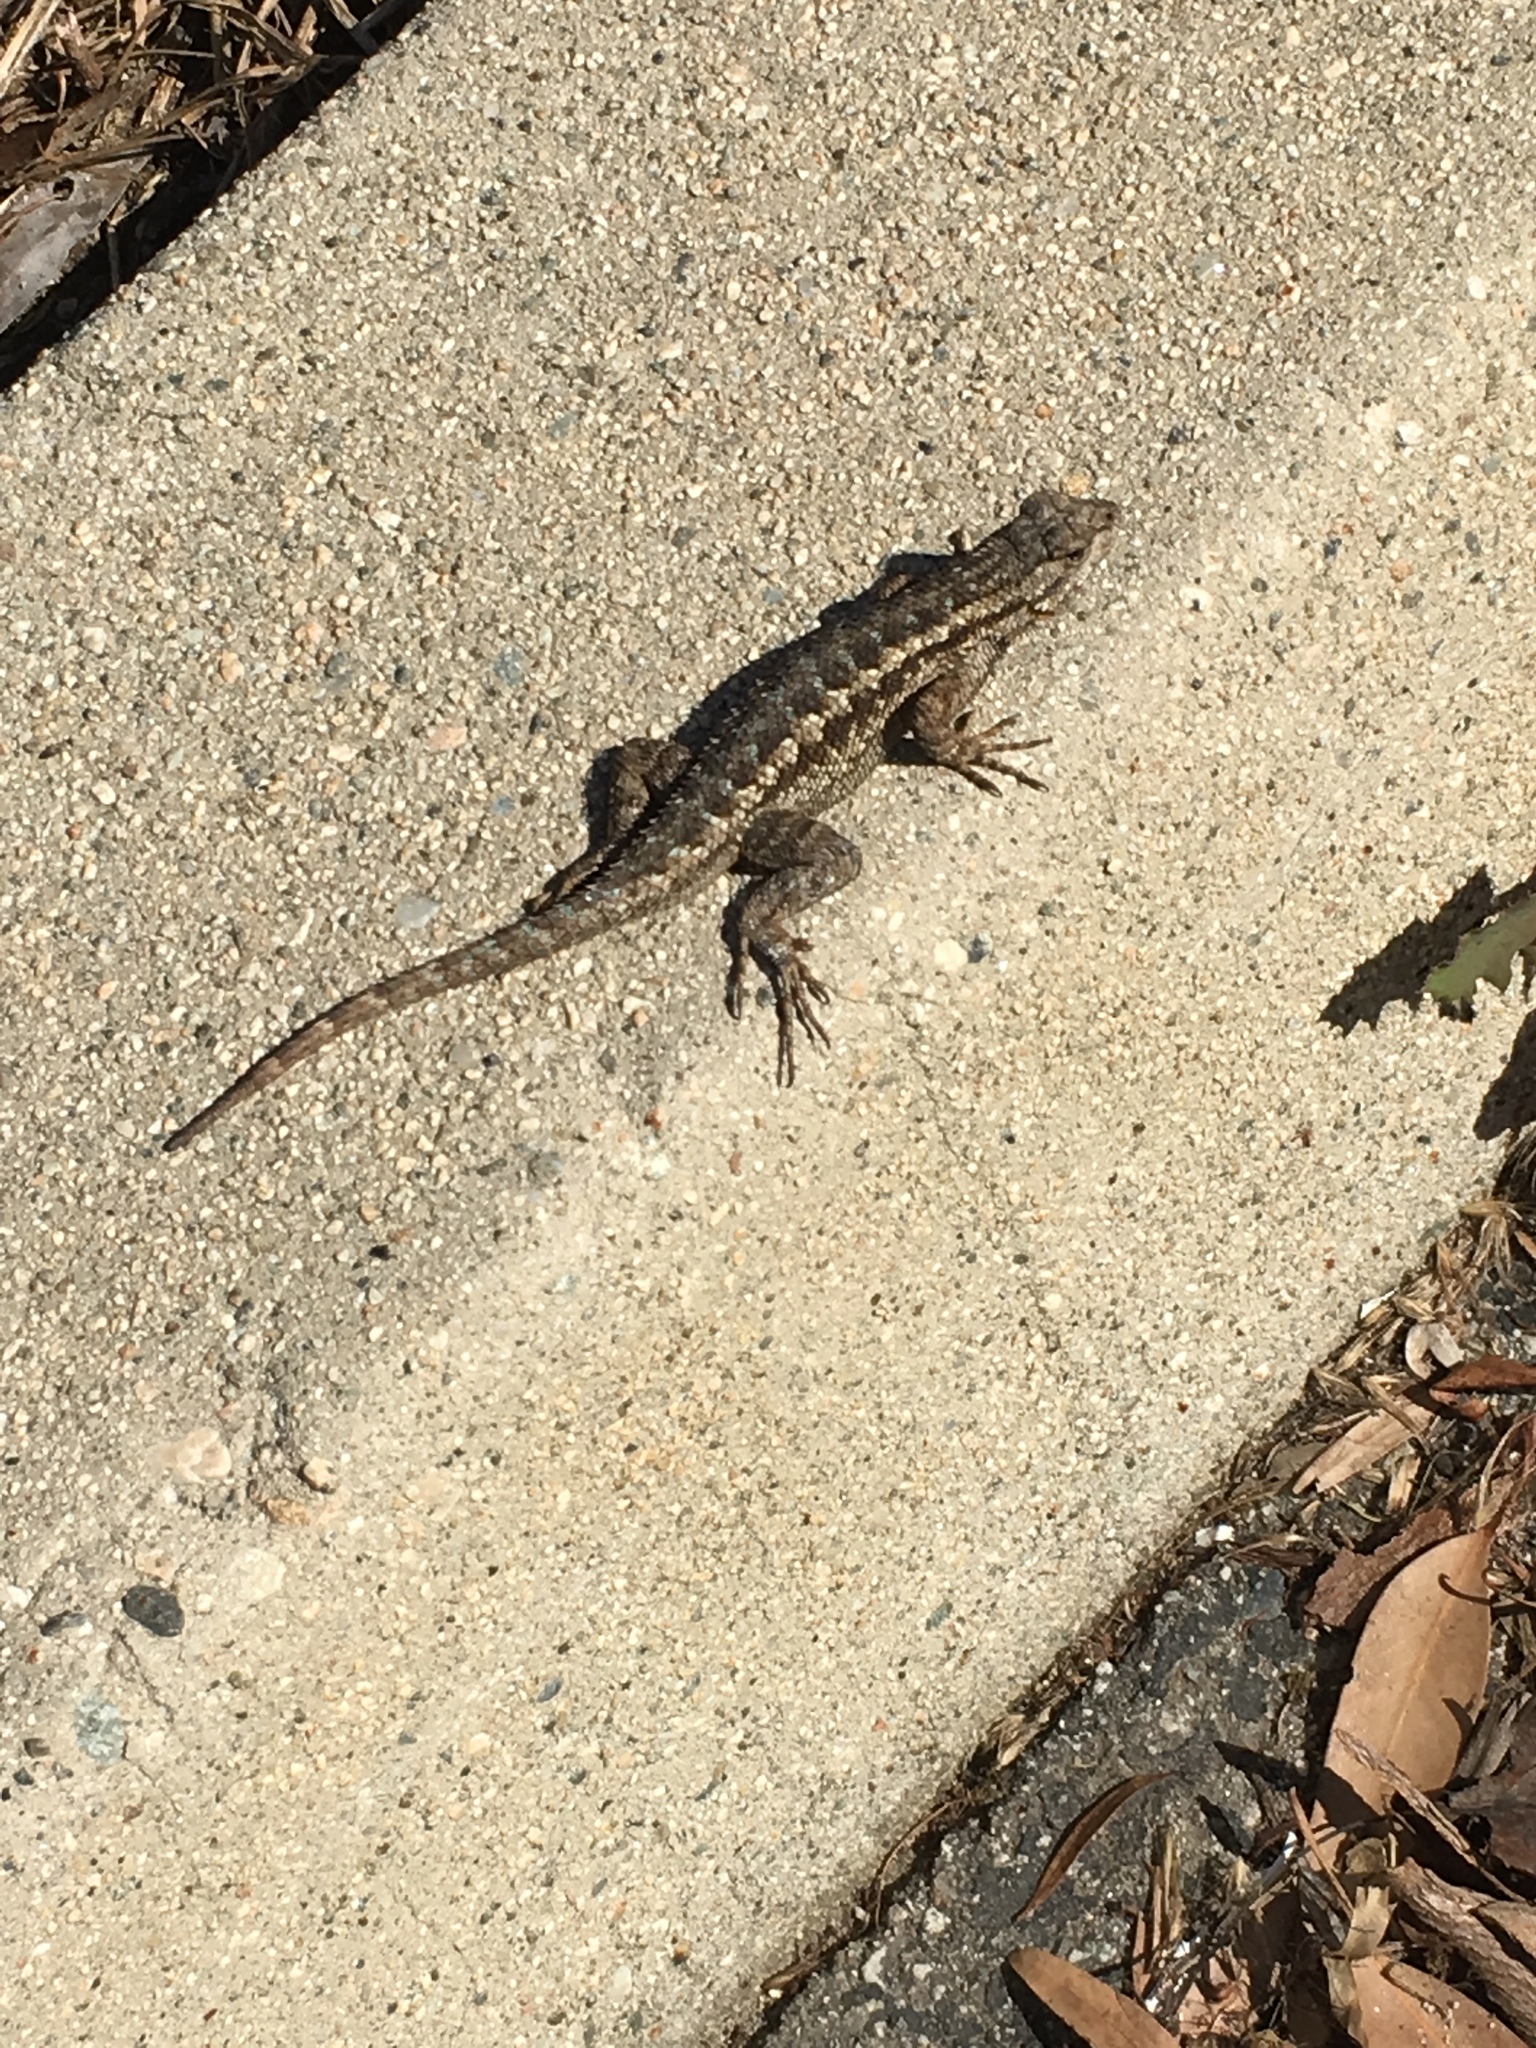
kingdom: Animalia
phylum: Chordata
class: Squamata
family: Phrynosomatidae
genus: Sceloporus
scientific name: Sceloporus occidentalis
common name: Western fence lizard
